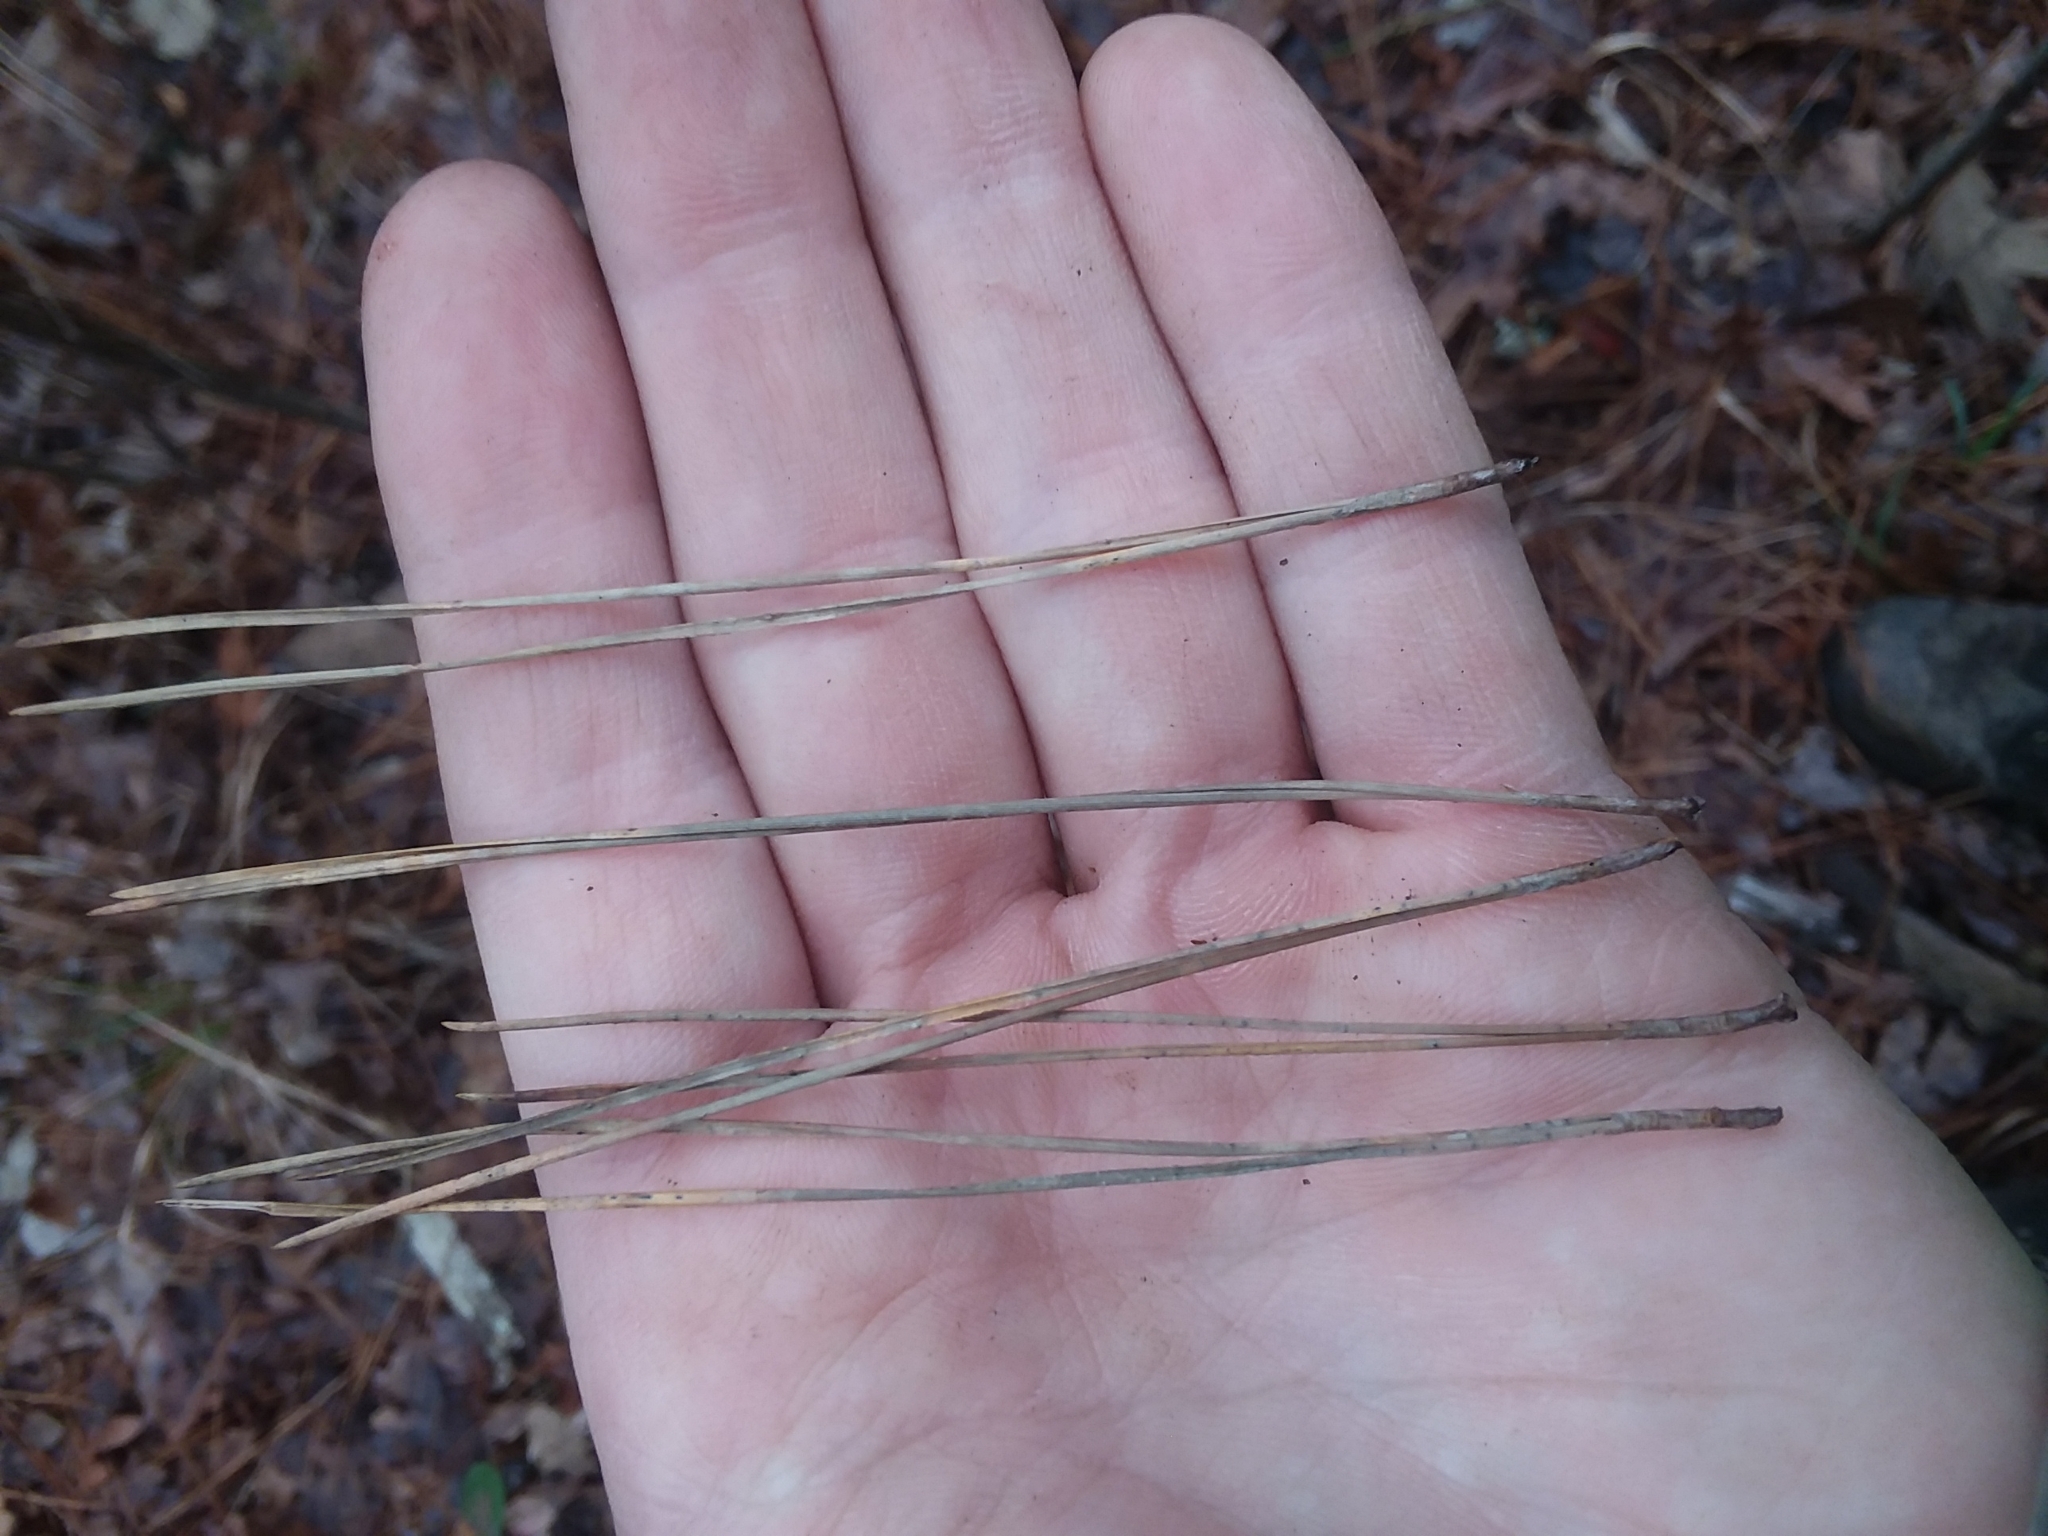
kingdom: Plantae
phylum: Tracheophyta
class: Pinopsida
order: Pinales
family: Pinaceae
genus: Pinus
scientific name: Pinus echinata
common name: Shortleaf pine
